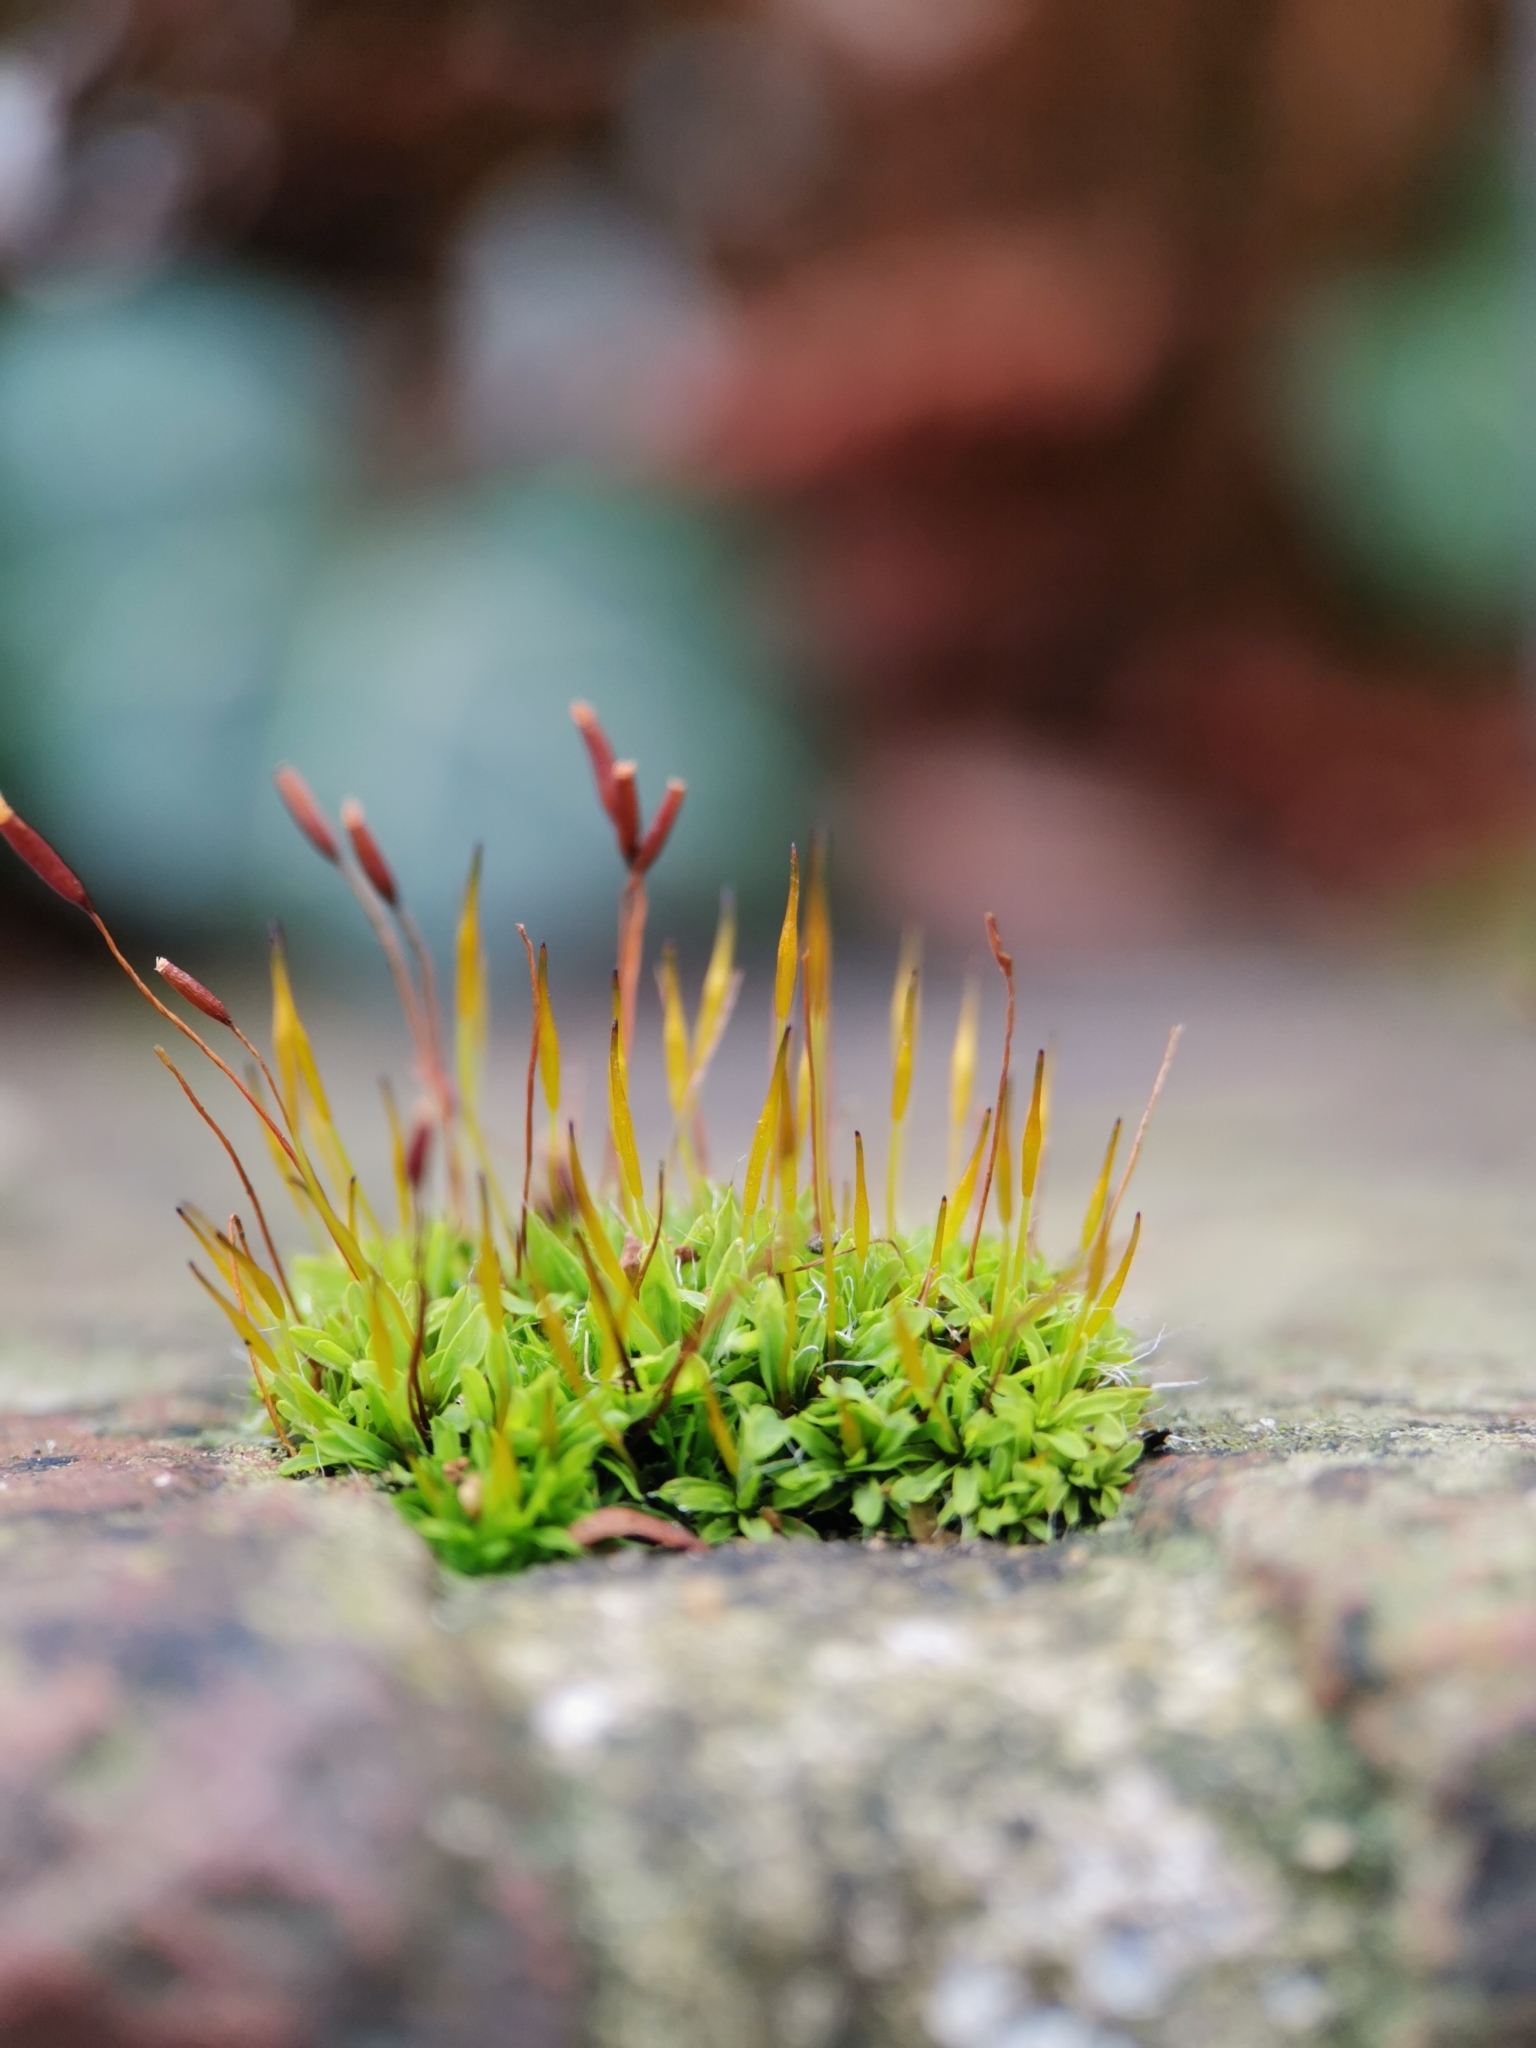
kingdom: Plantae
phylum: Bryophyta
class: Bryopsida
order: Pottiales
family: Pottiaceae
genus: Tortula
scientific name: Tortula muralis
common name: Wall screw-moss
